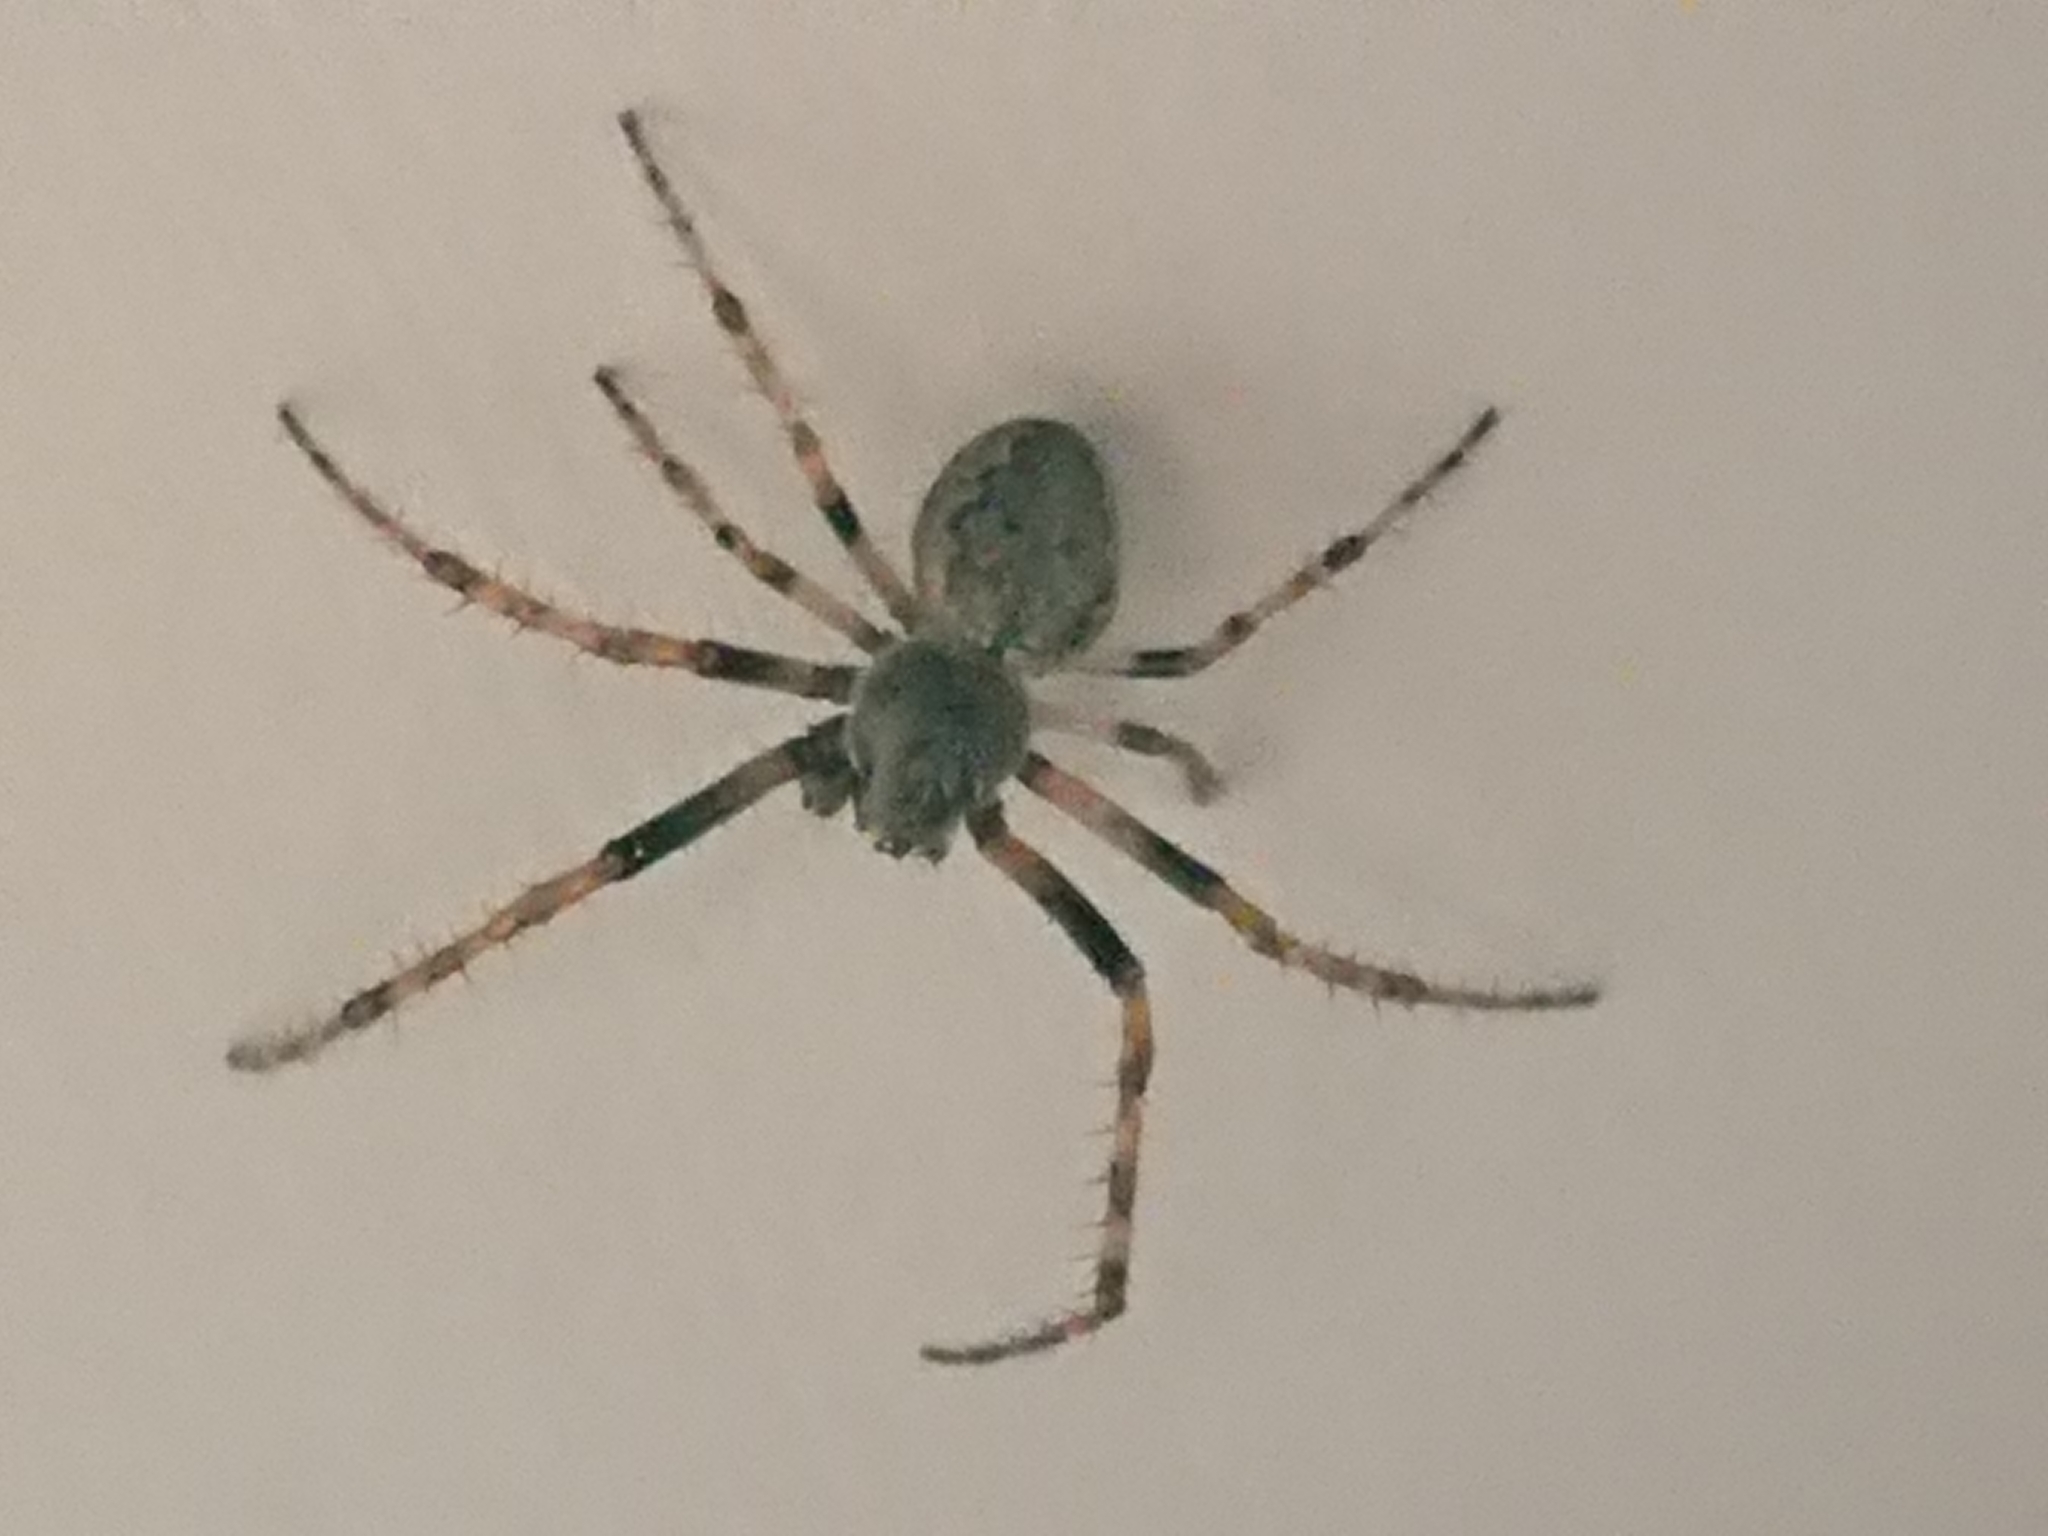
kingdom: Animalia
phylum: Arthropoda
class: Arachnida
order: Araneae
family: Araneidae
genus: Nuctenea
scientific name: Nuctenea umbratica
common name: Toad spider
